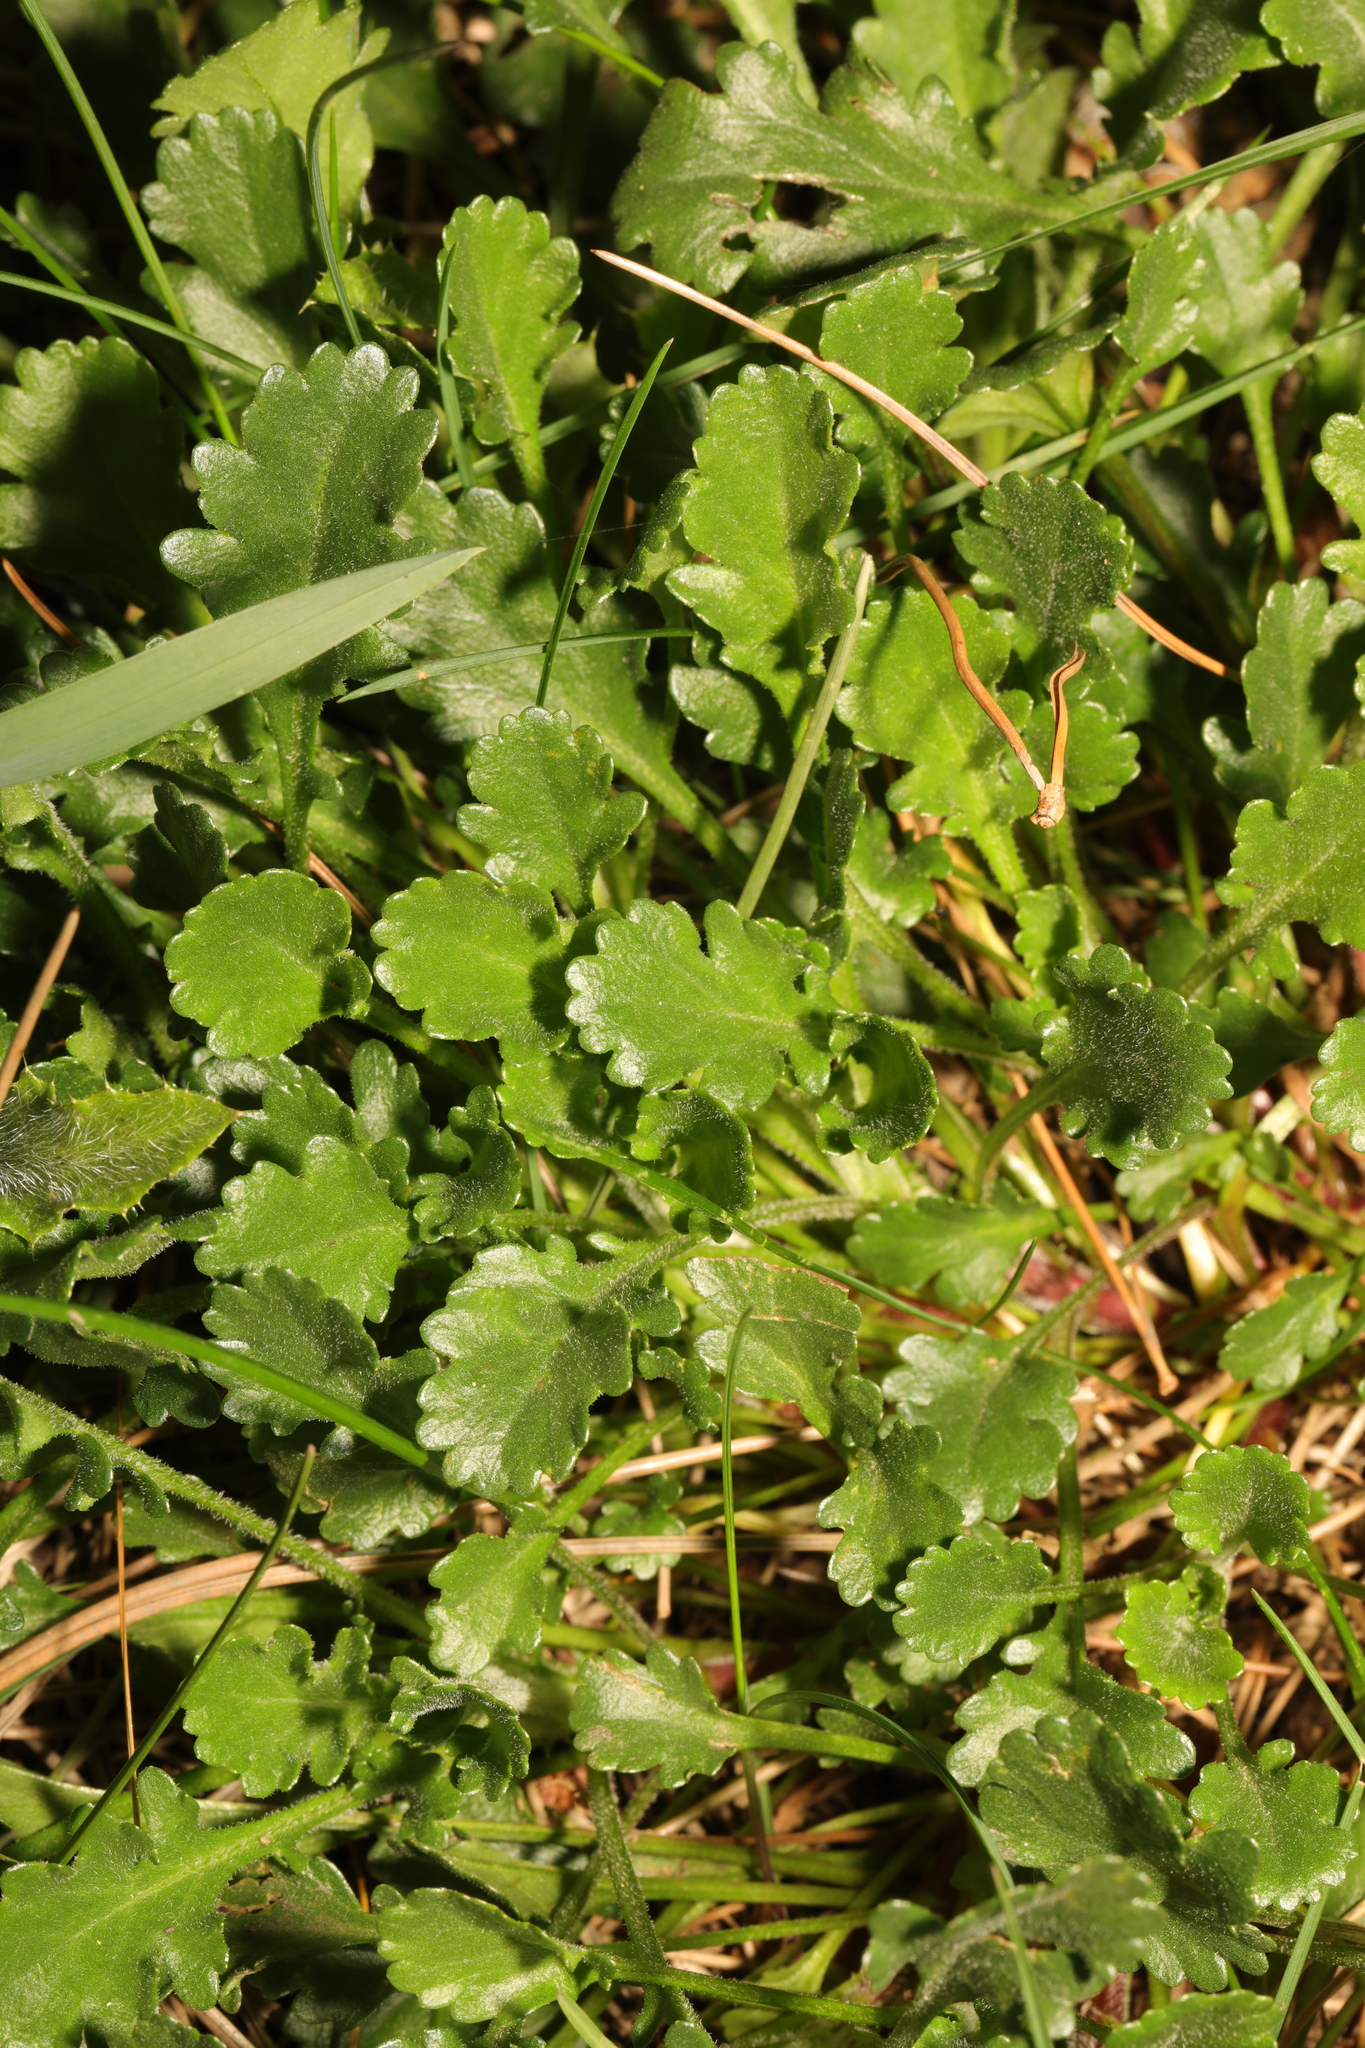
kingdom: Plantae
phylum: Tracheophyta
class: Magnoliopsida
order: Asterales
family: Asteraceae
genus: Leucanthemum
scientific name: Leucanthemum vulgare
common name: Oxeye daisy
